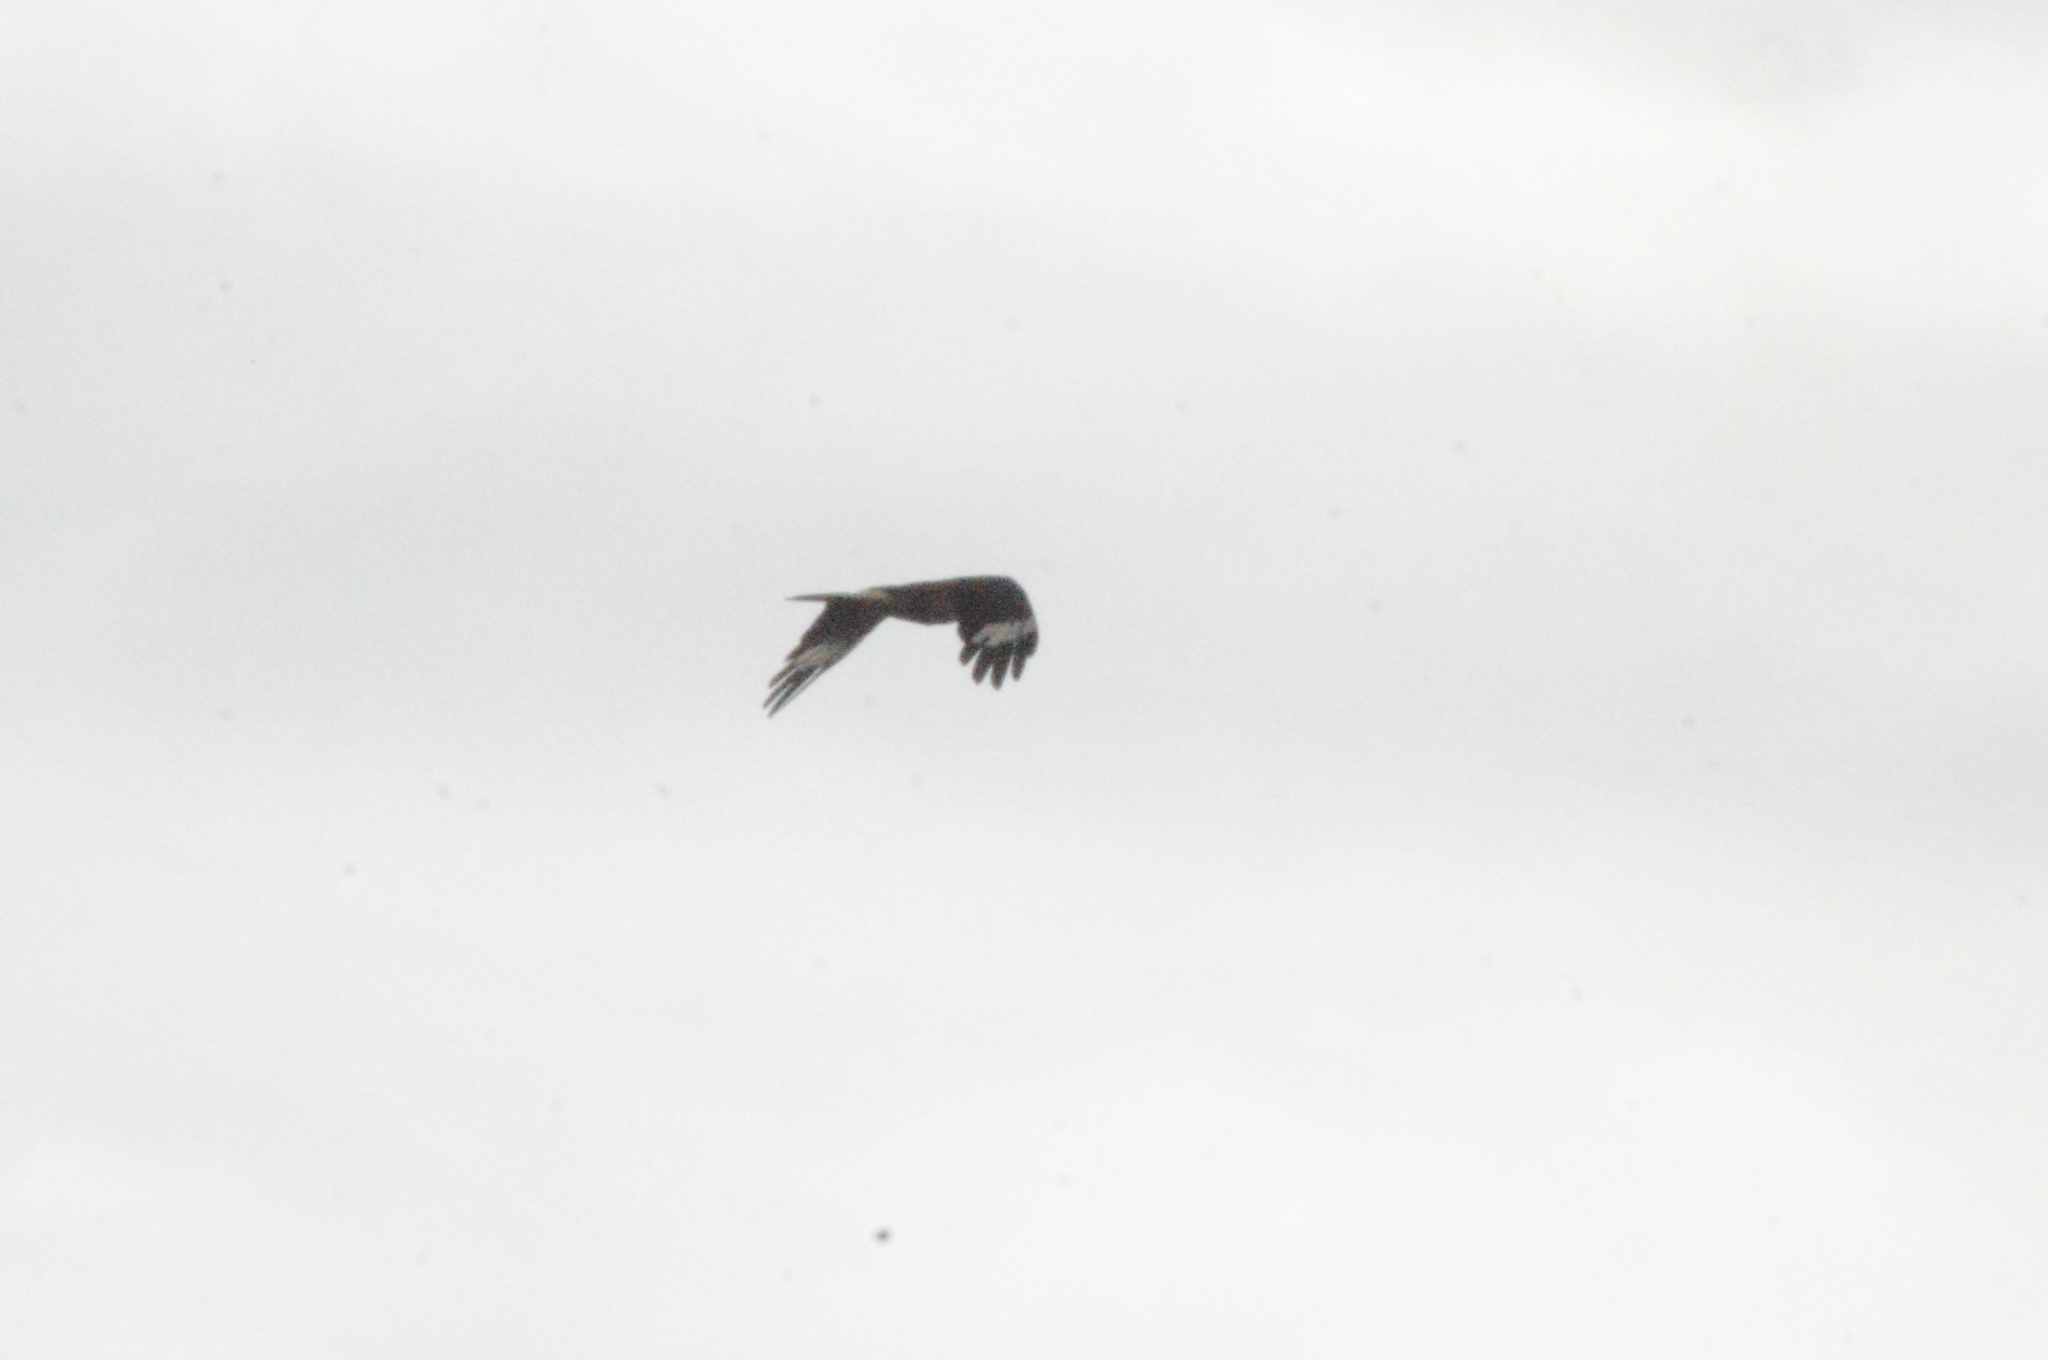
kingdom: Animalia
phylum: Chordata
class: Aves
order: Falconiformes
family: Falconidae
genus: Daptrius
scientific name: Daptrius
